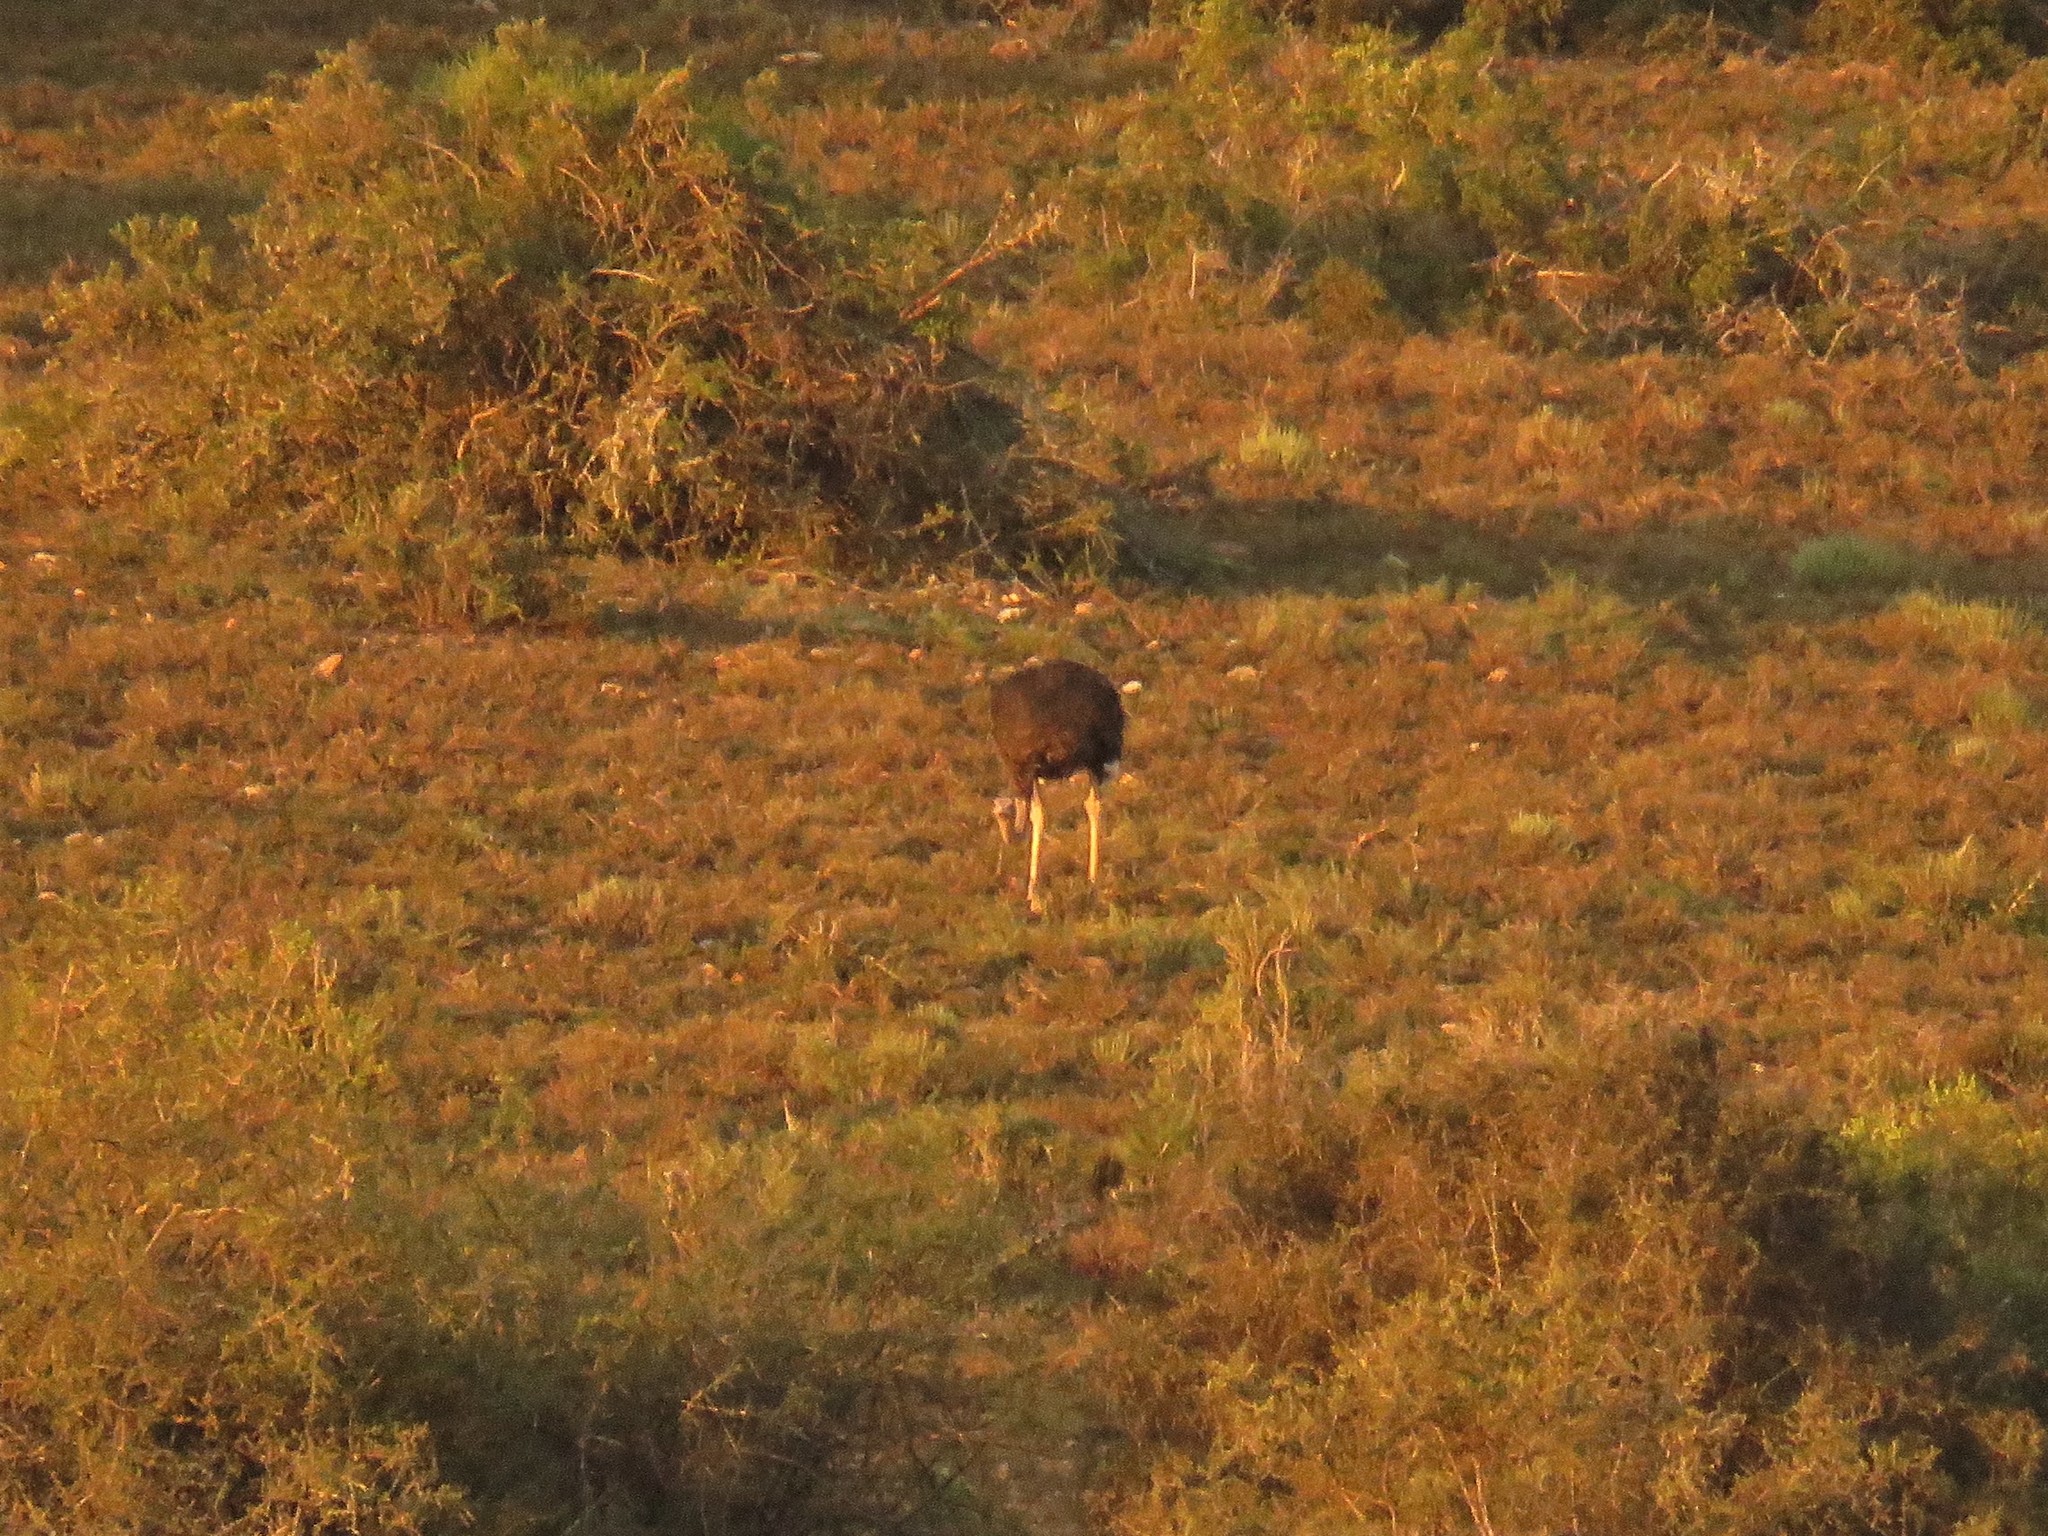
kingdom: Animalia
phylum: Chordata
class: Aves
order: Struthioniformes
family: Struthionidae
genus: Struthio
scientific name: Struthio camelus
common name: Common ostrich
